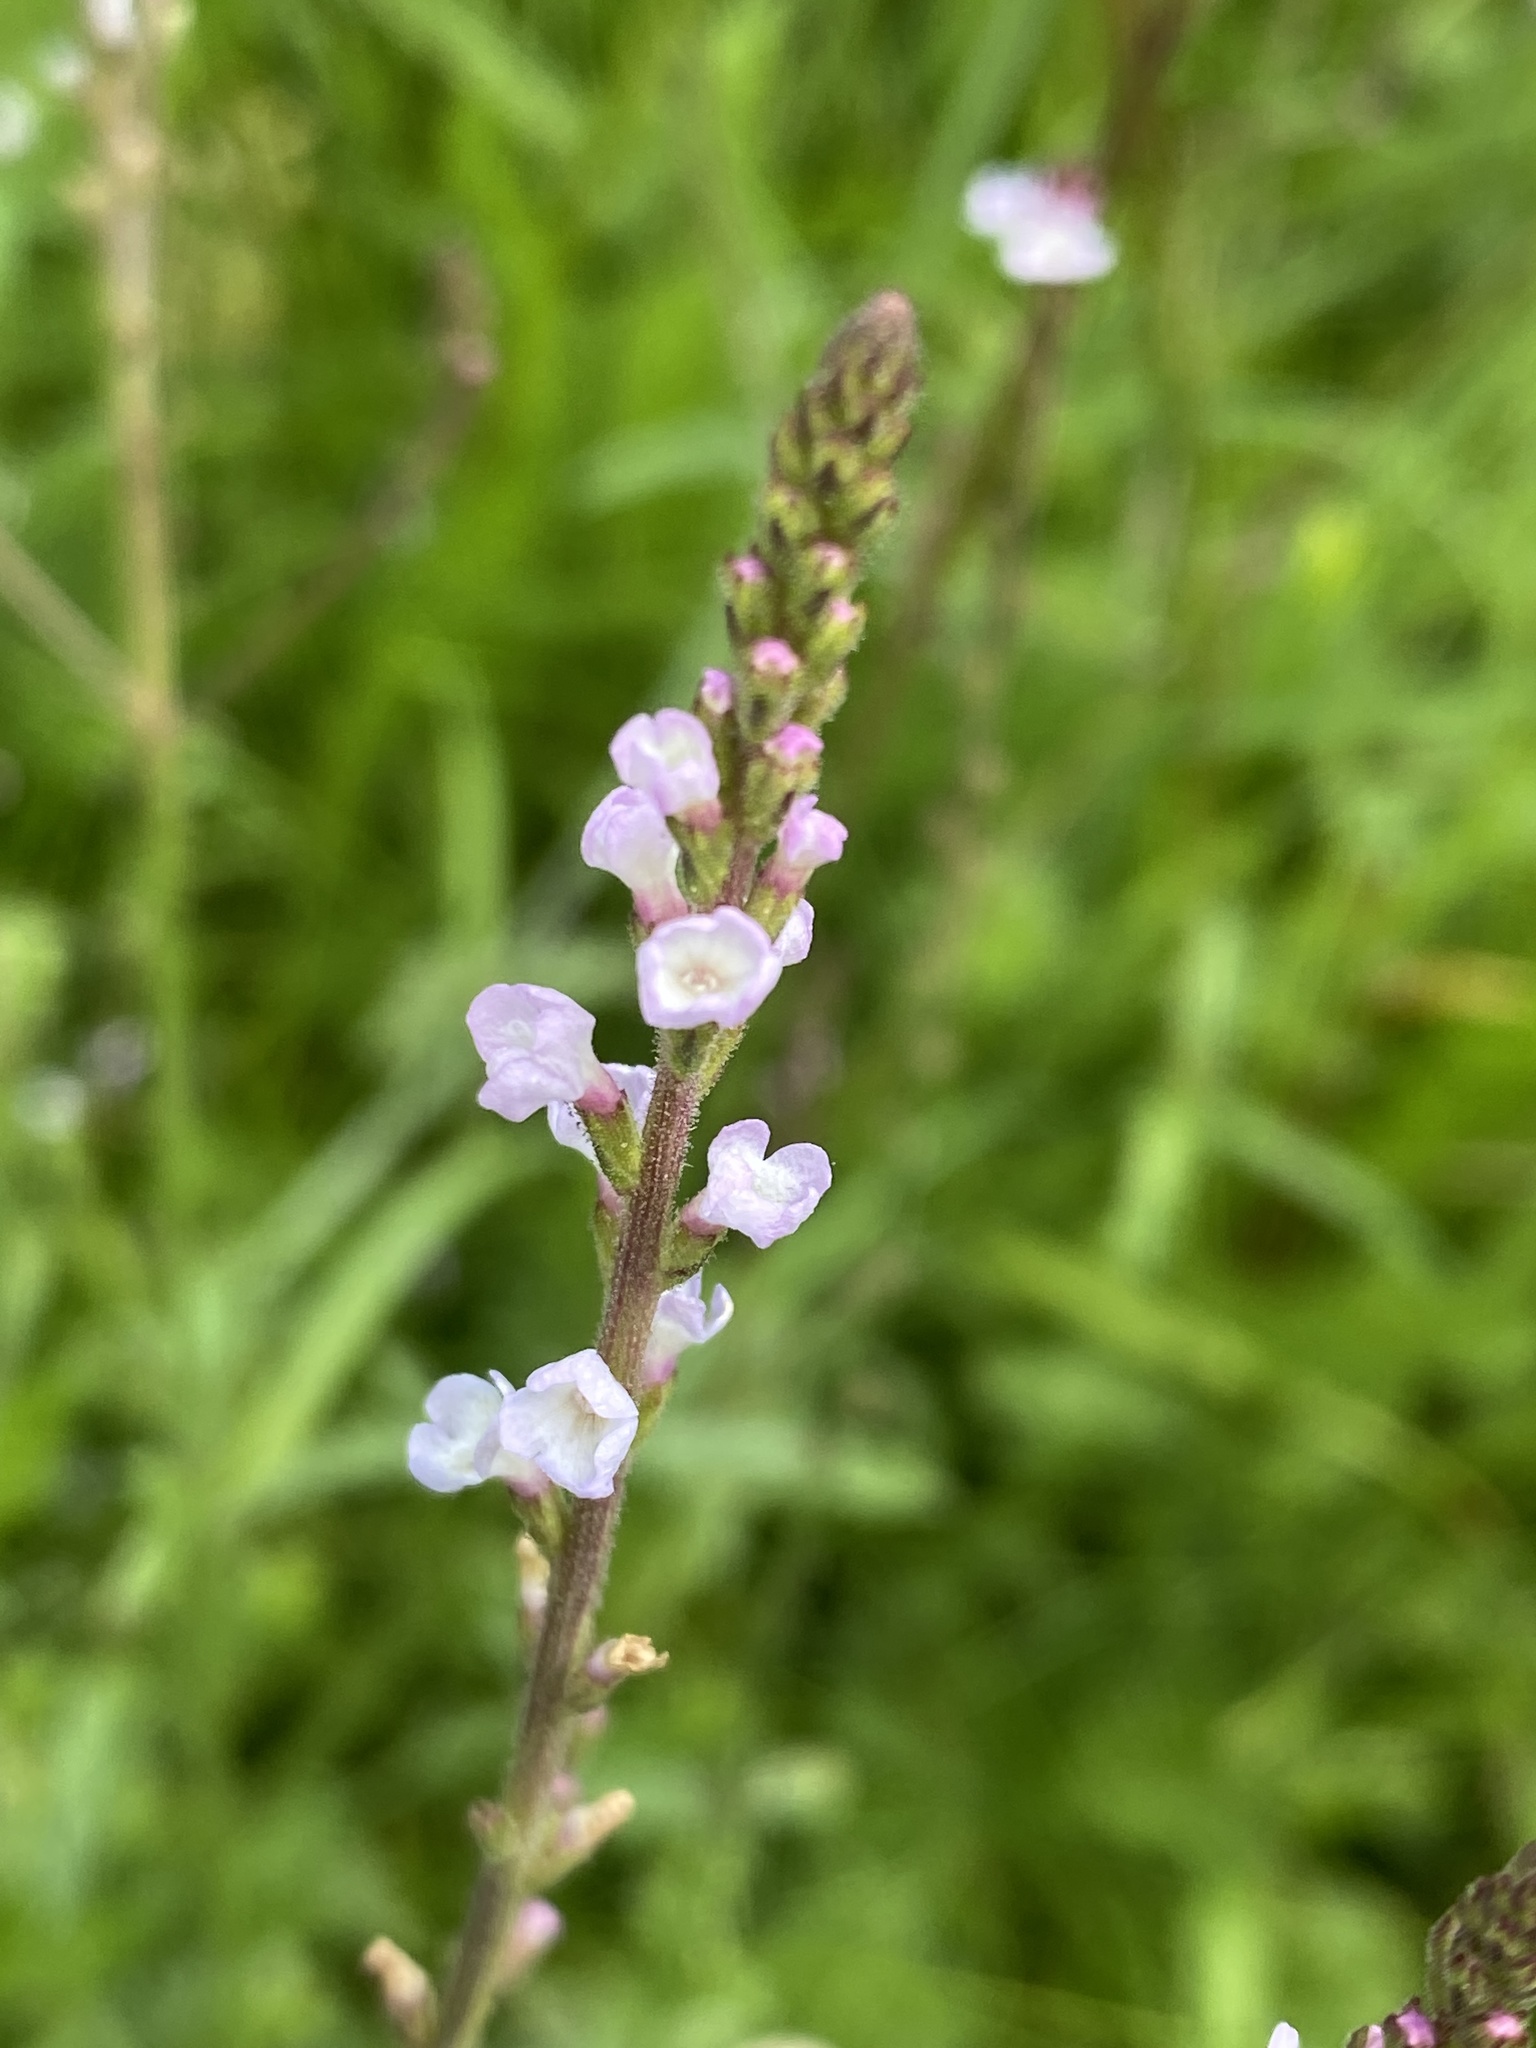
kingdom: Plantae
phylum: Tracheophyta
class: Magnoliopsida
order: Lamiales
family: Verbenaceae
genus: Verbena
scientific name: Verbena officinalis
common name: Vervain
